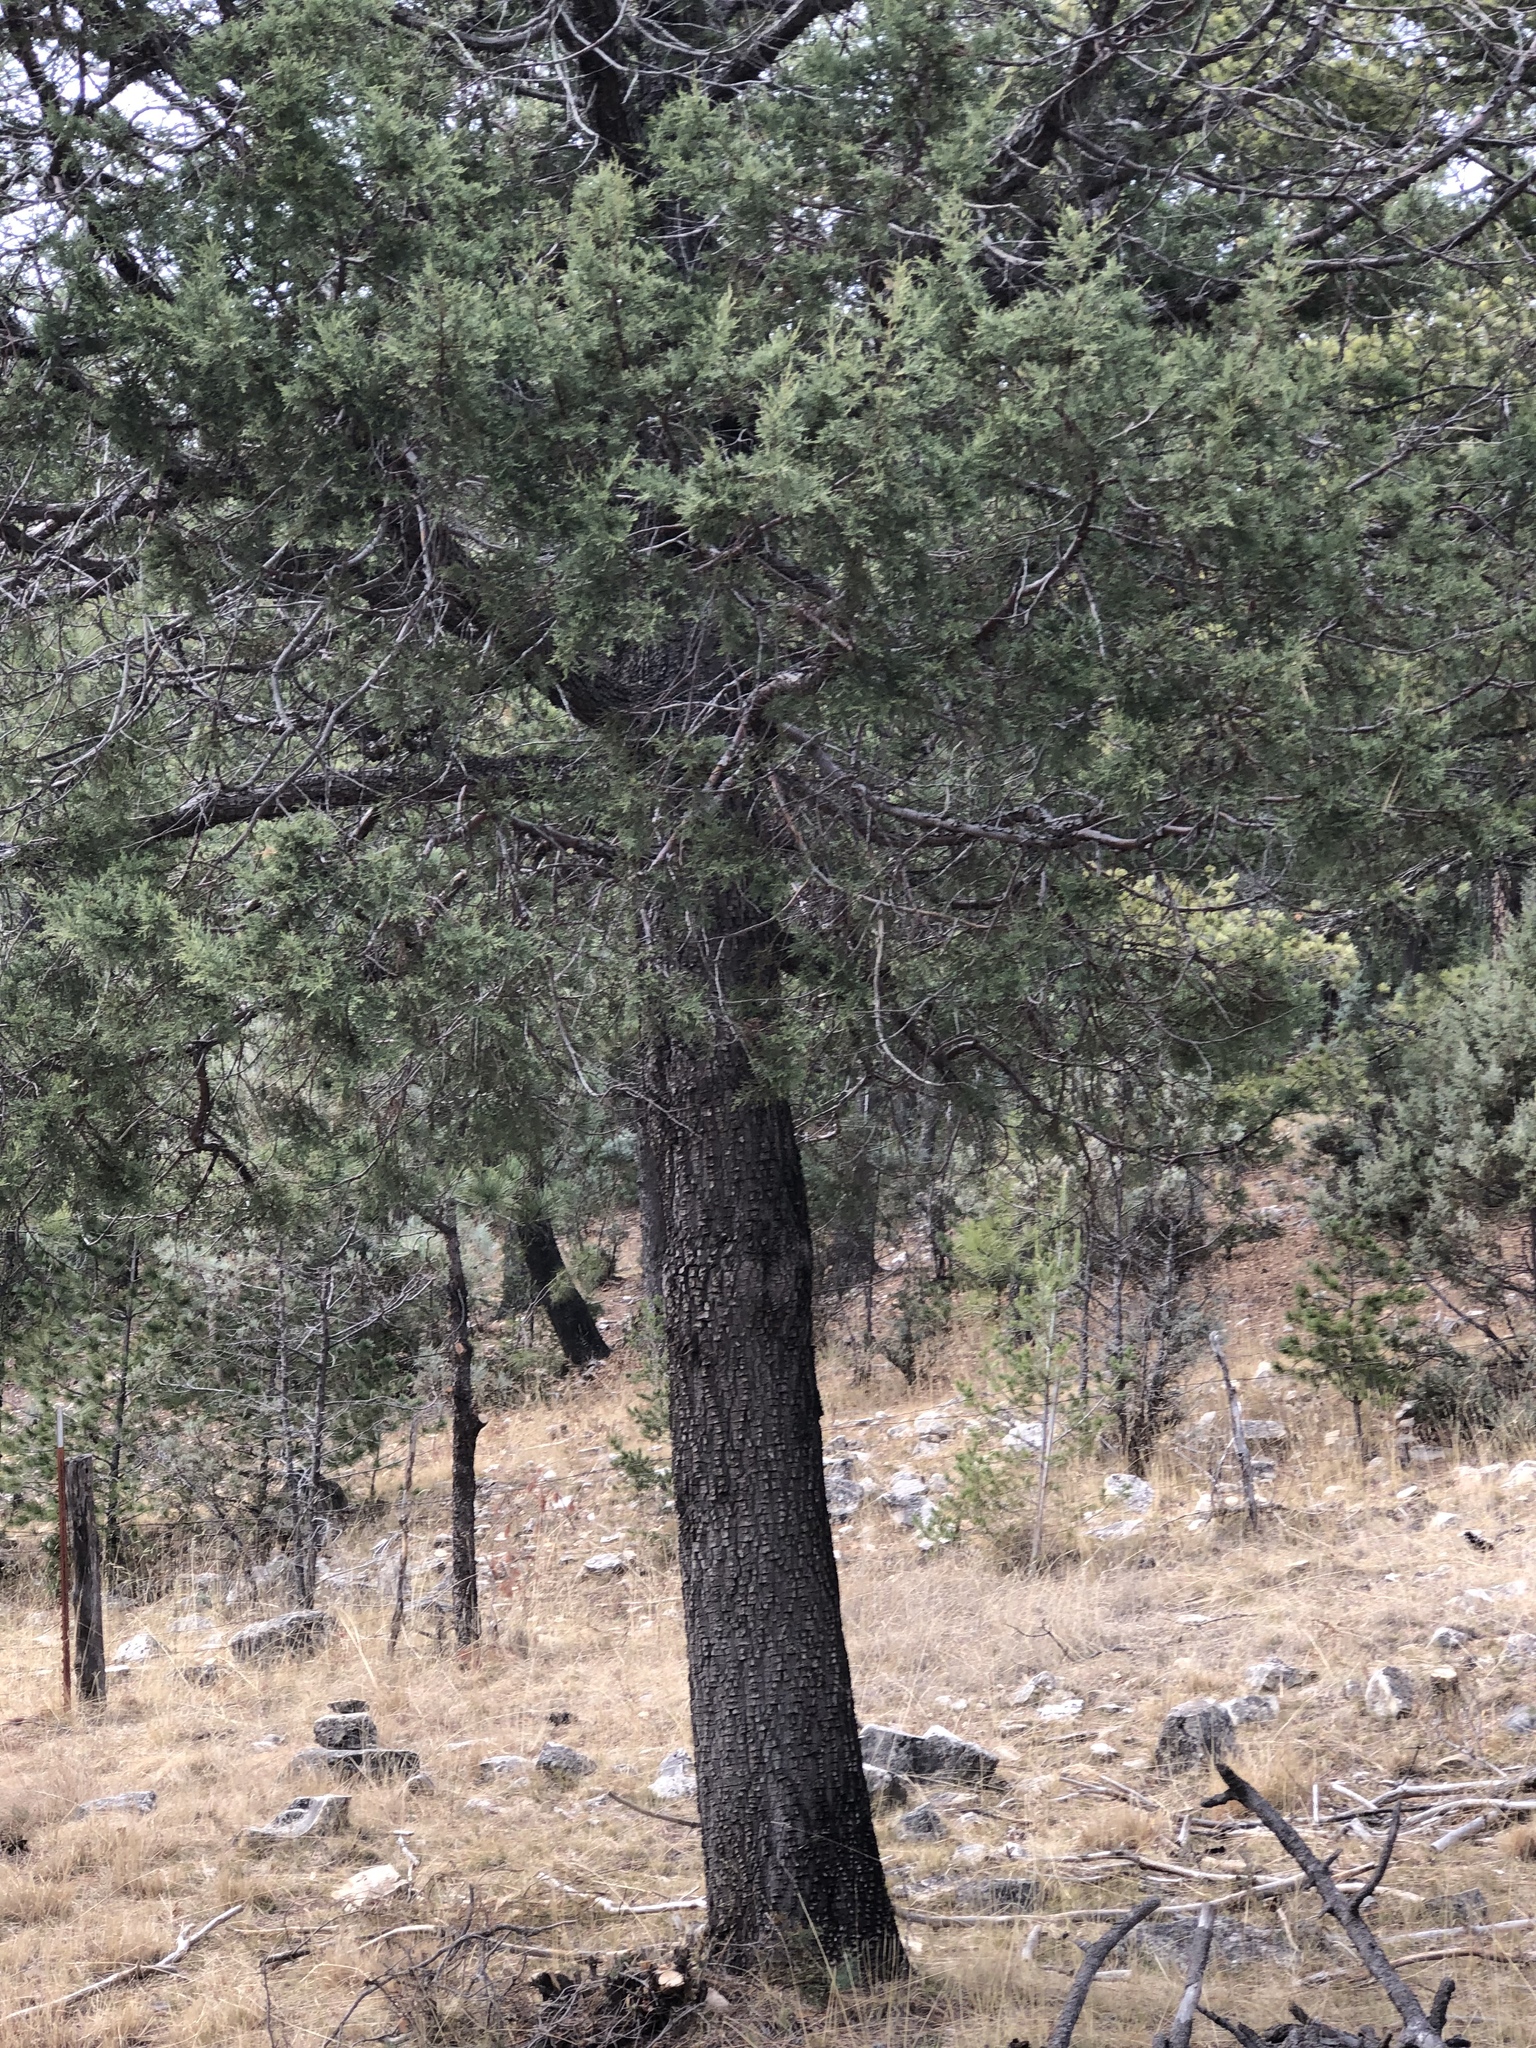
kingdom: Plantae
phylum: Tracheophyta
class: Pinopsida
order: Pinales
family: Cupressaceae
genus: Juniperus
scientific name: Juniperus deppeana
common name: Alligator juniper
